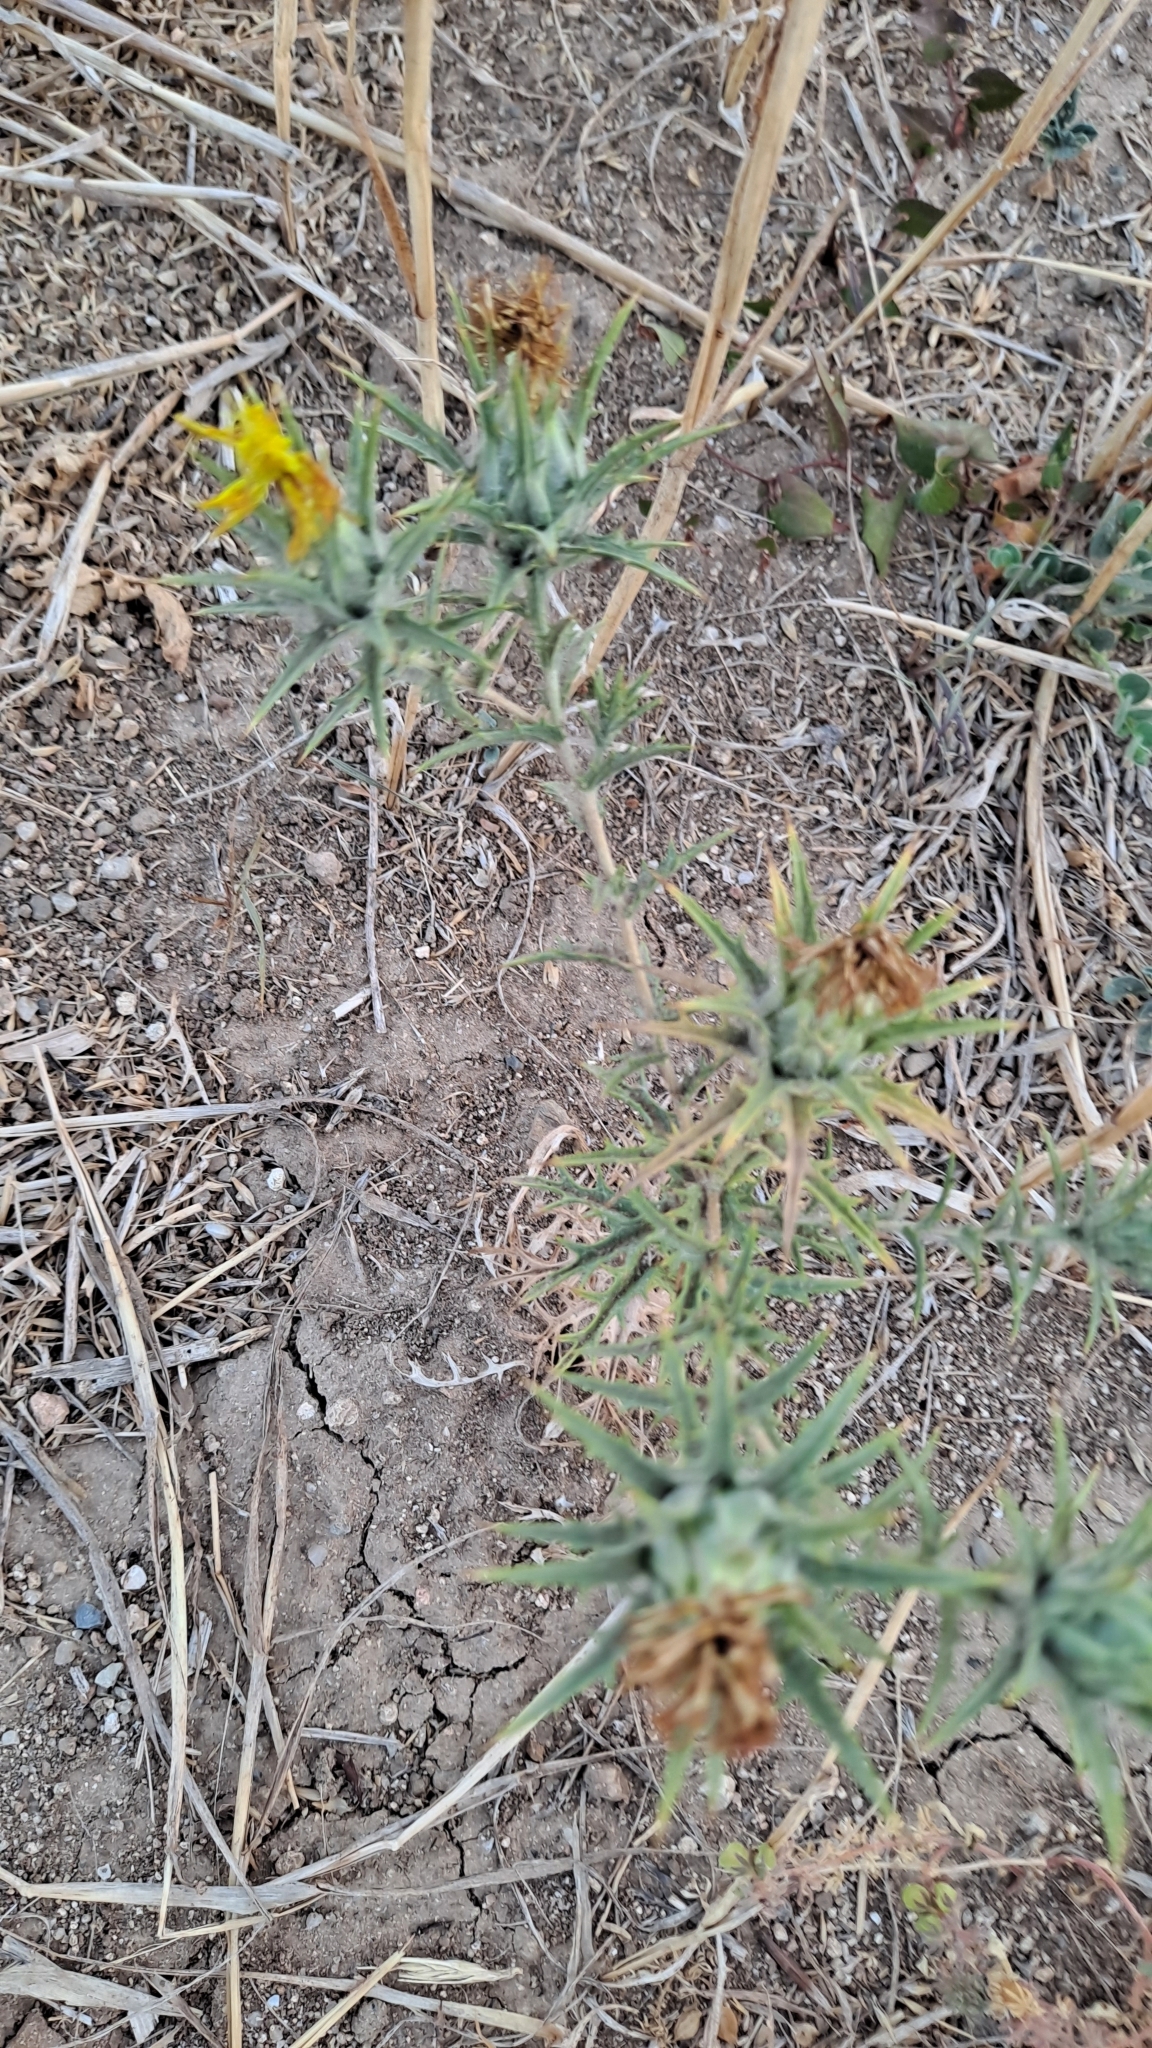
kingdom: Plantae
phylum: Tracheophyta
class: Magnoliopsida
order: Asterales
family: Asteraceae
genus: Carthamus
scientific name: Carthamus lanatus
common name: Downy safflower
